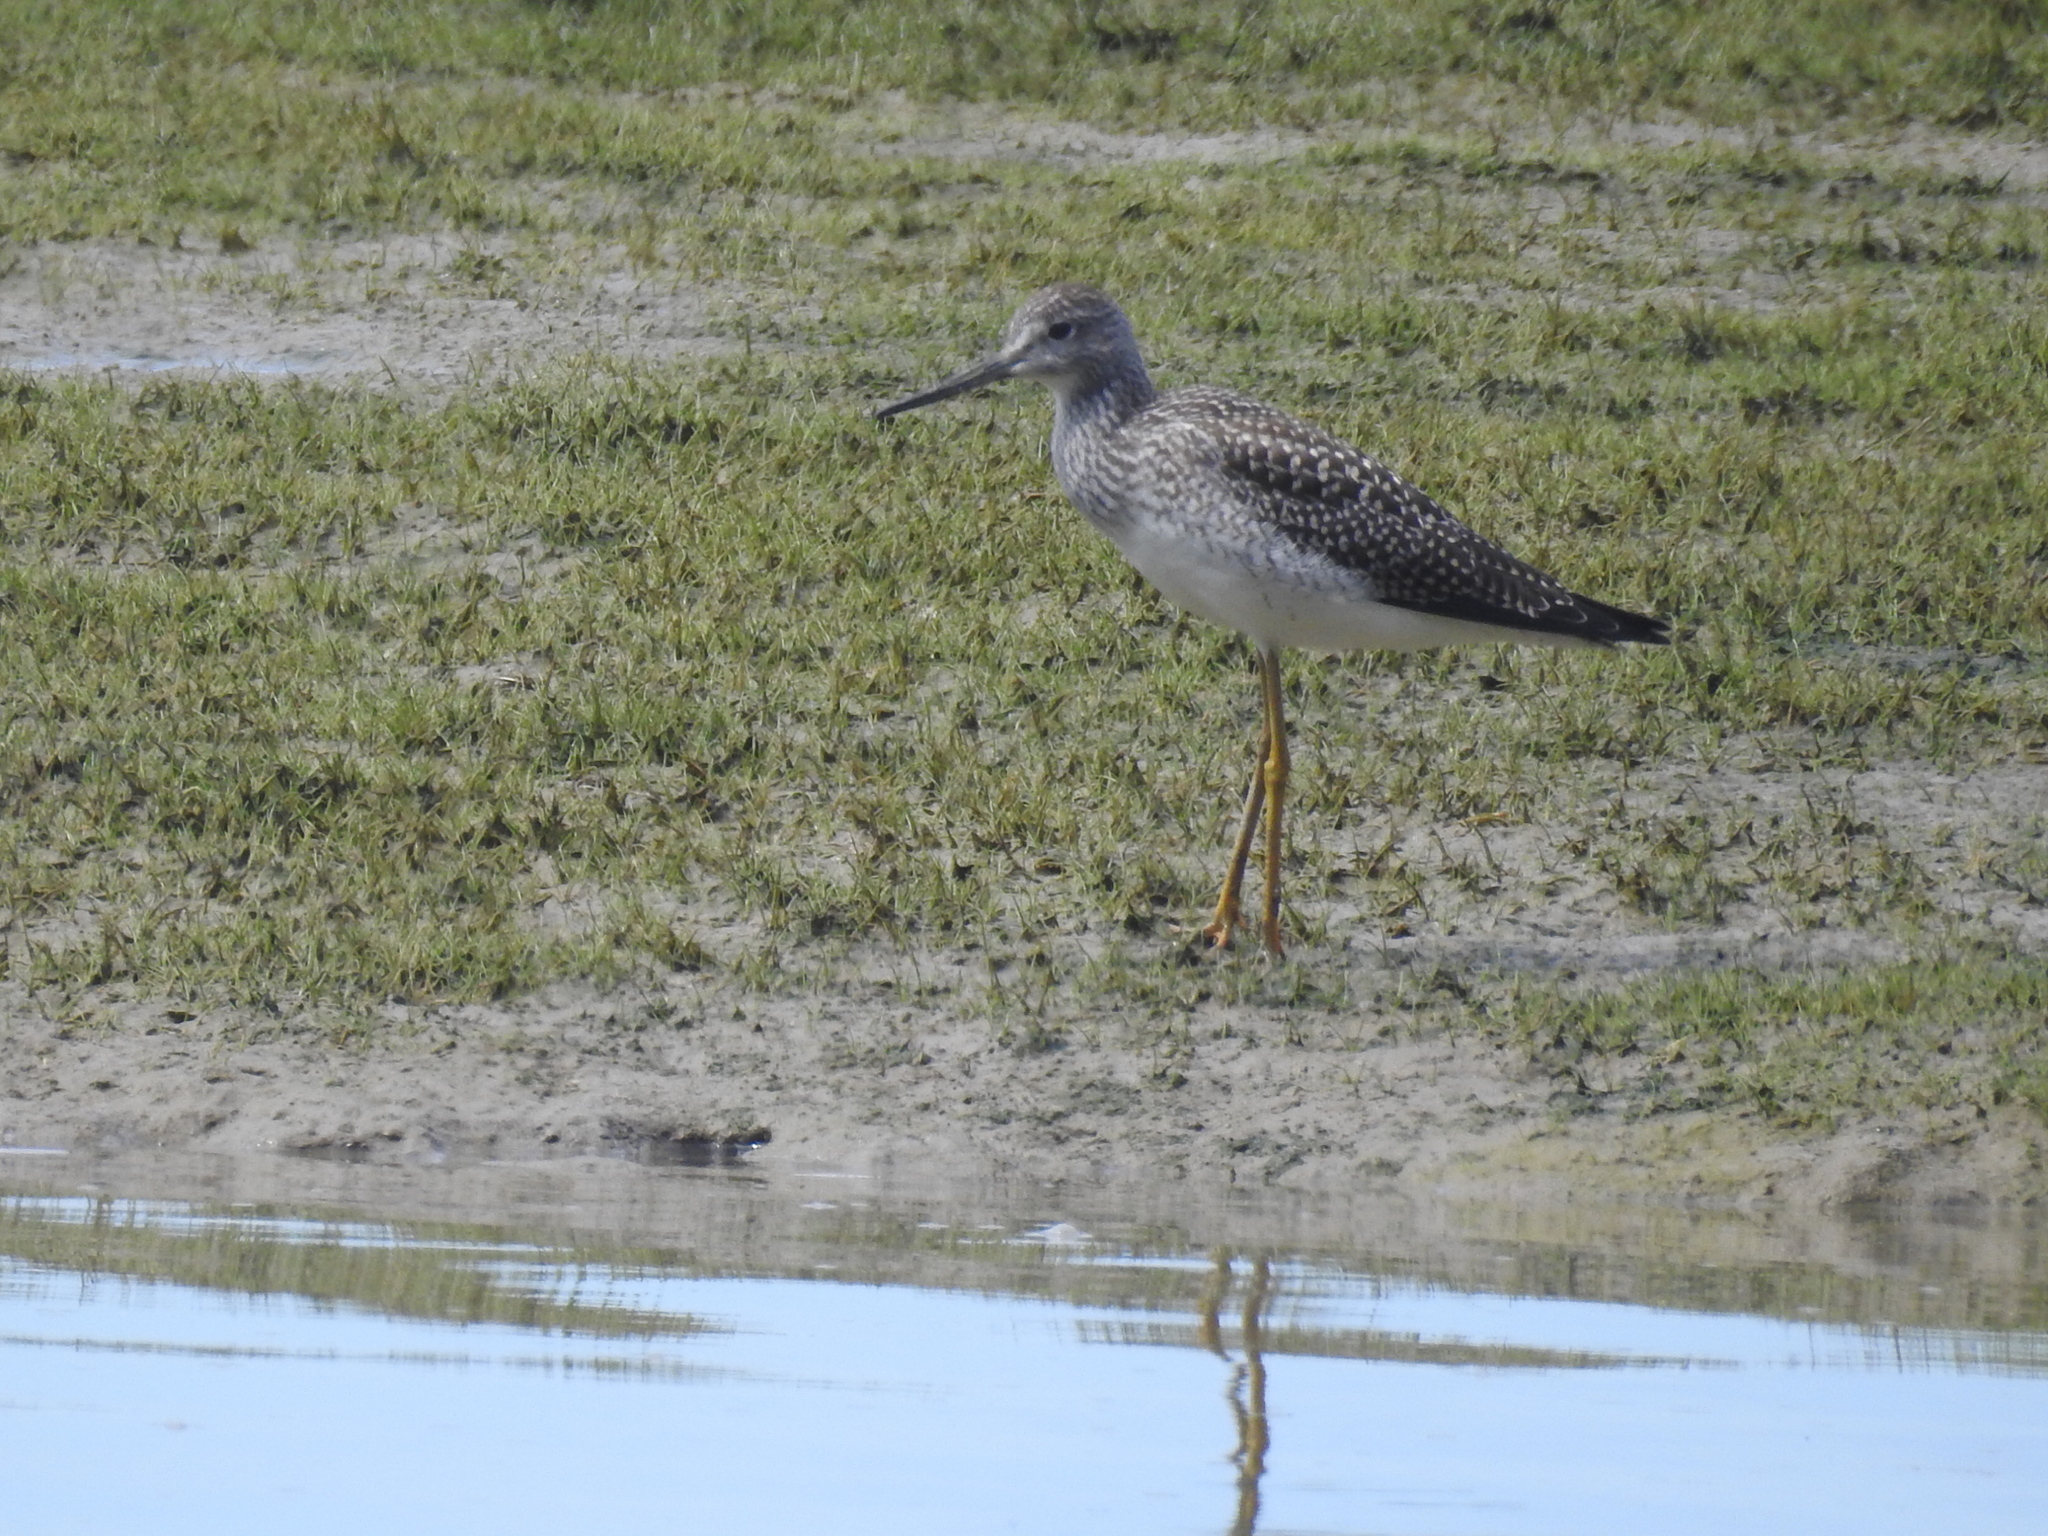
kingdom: Animalia
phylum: Chordata
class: Aves
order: Charadriiformes
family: Scolopacidae
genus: Tringa
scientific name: Tringa melanoleuca
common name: Greater yellowlegs
